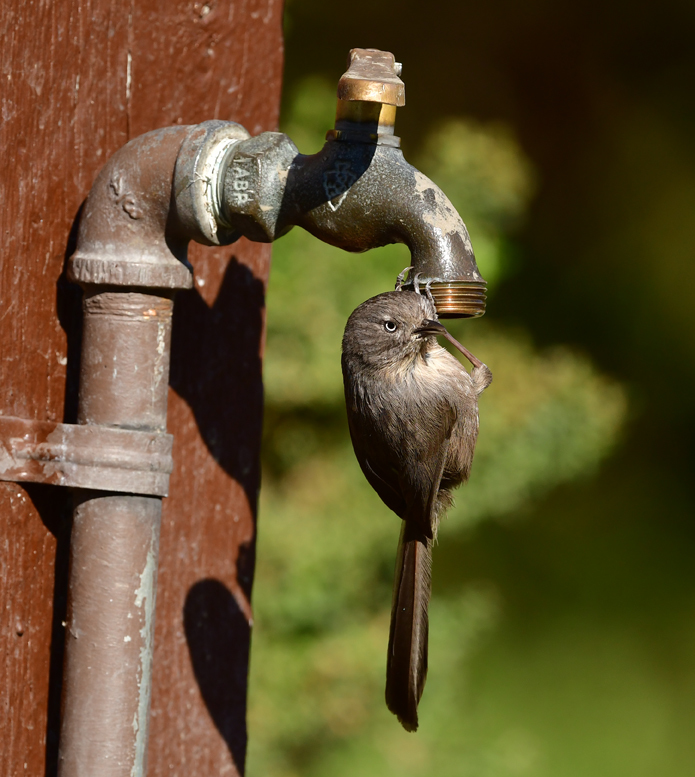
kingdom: Animalia
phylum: Chordata
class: Aves
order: Passeriformes
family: Sylviidae
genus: Chamaea
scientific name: Chamaea fasciata
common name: Wrentit
